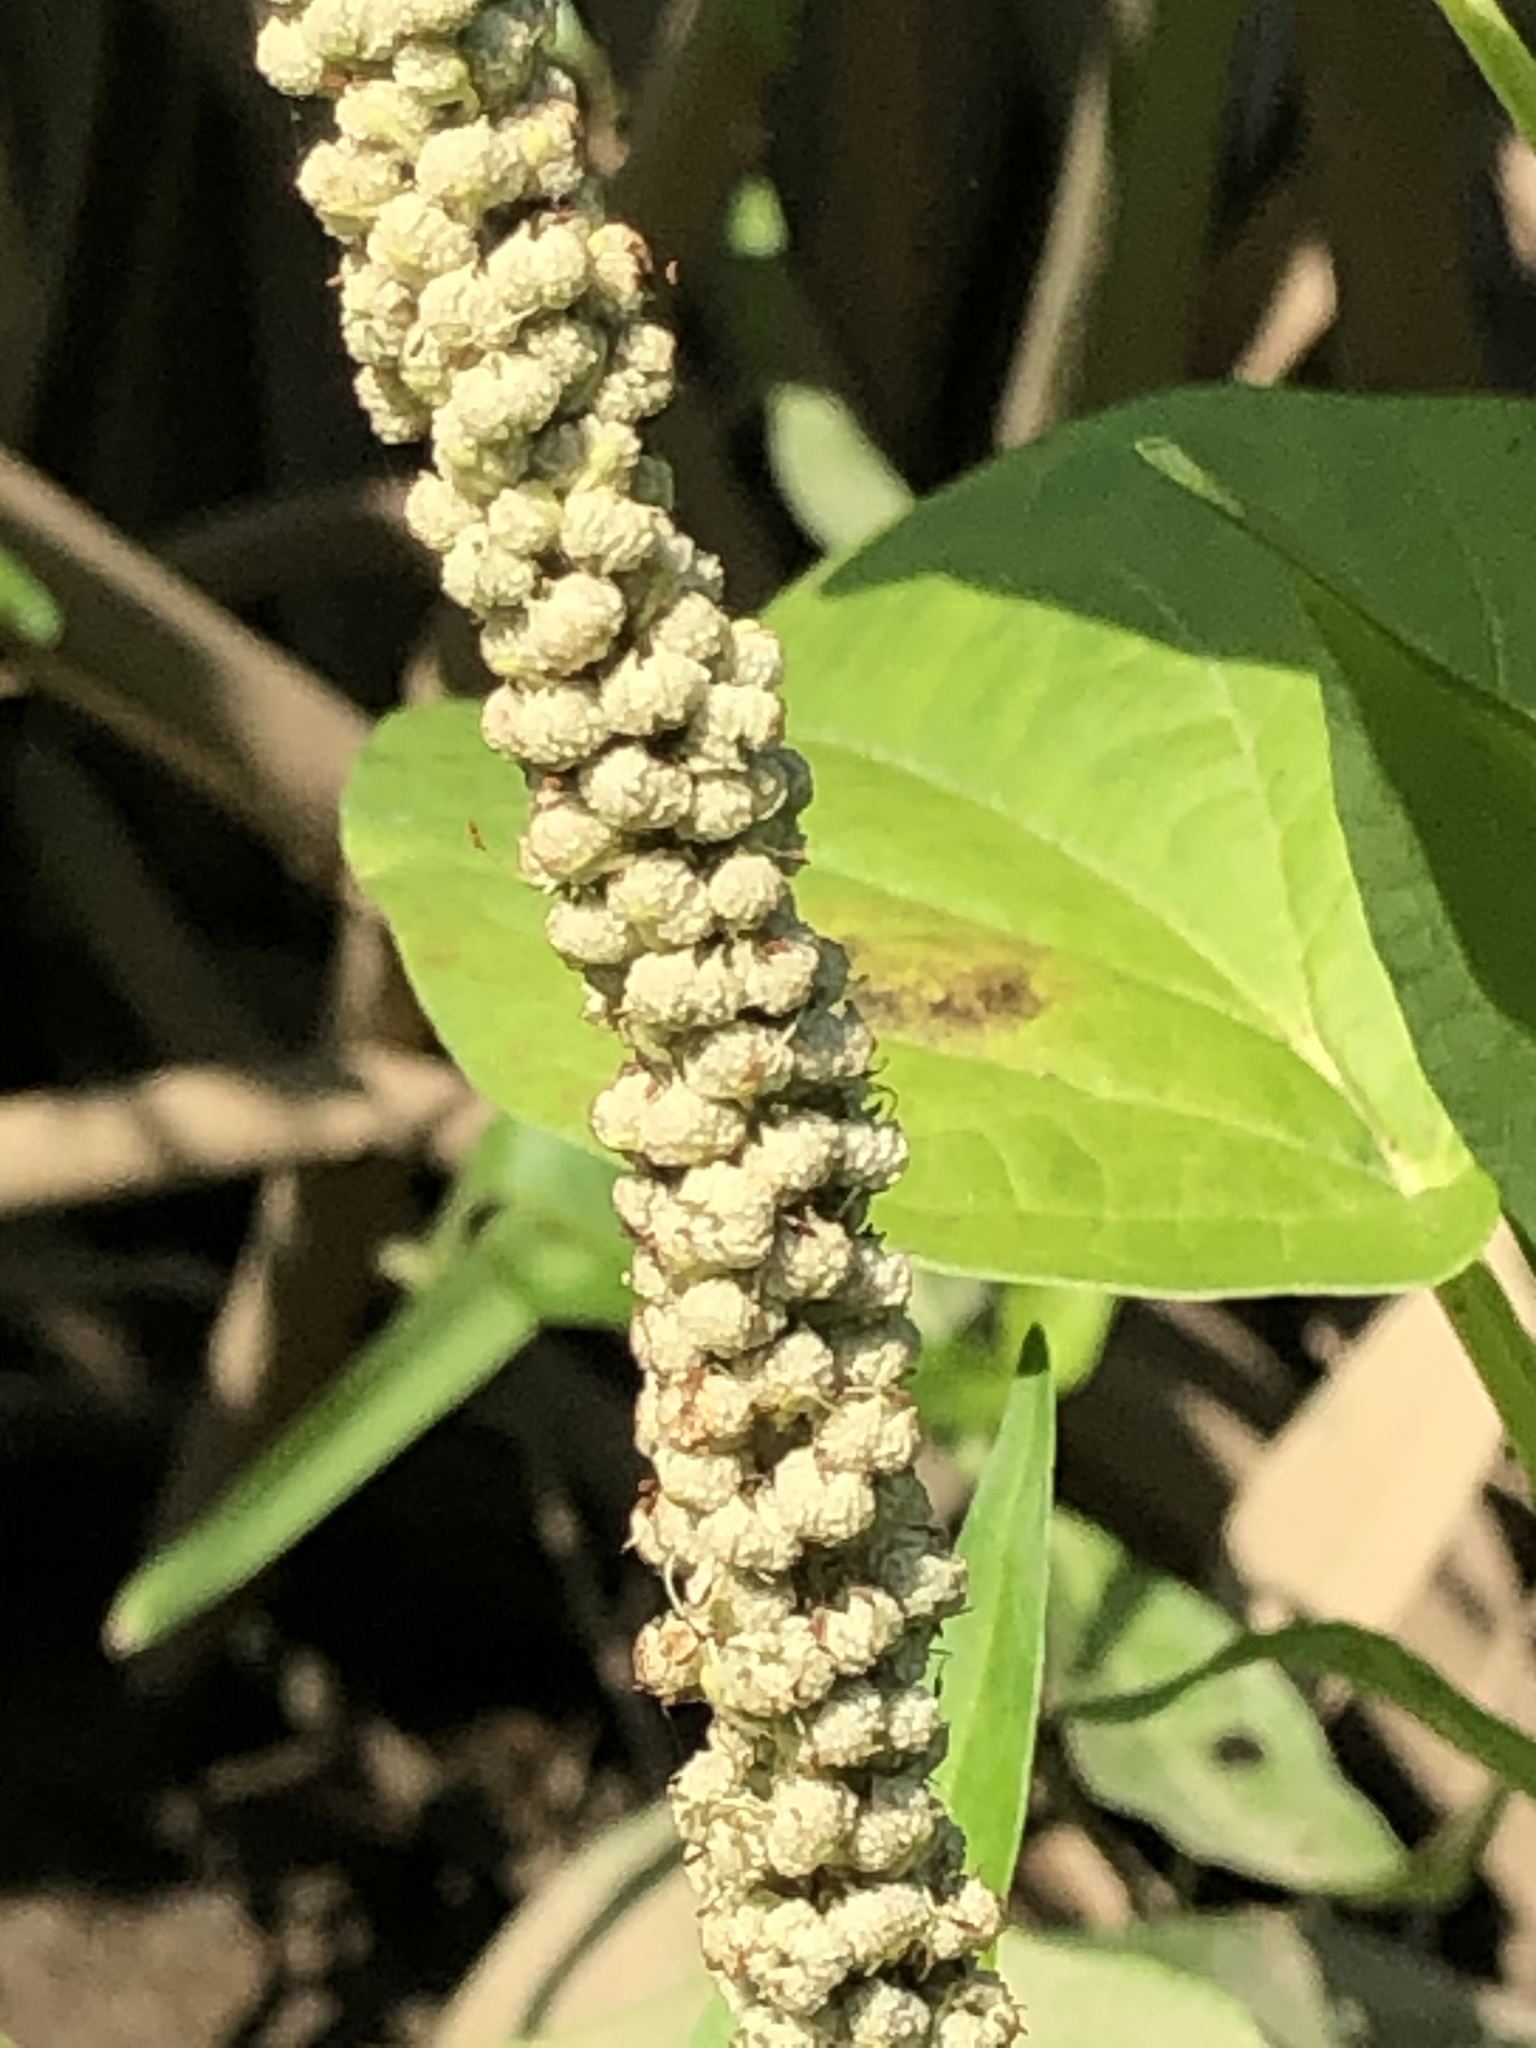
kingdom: Plantae
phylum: Tracheophyta
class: Magnoliopsida
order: Piperales
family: Saururaceae
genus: Saururus
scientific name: Saururus cernuus
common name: Lizard's-tail
